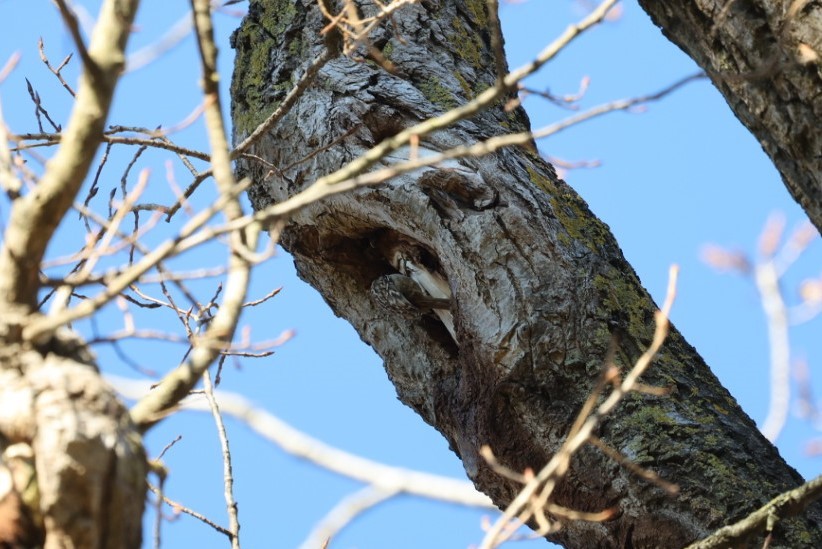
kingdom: Animalia
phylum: Chordata
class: Aves
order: Passeriformes
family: Certhiidae
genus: Certhia
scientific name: Certhia brachydactyla
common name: Short-toed treecreeper
